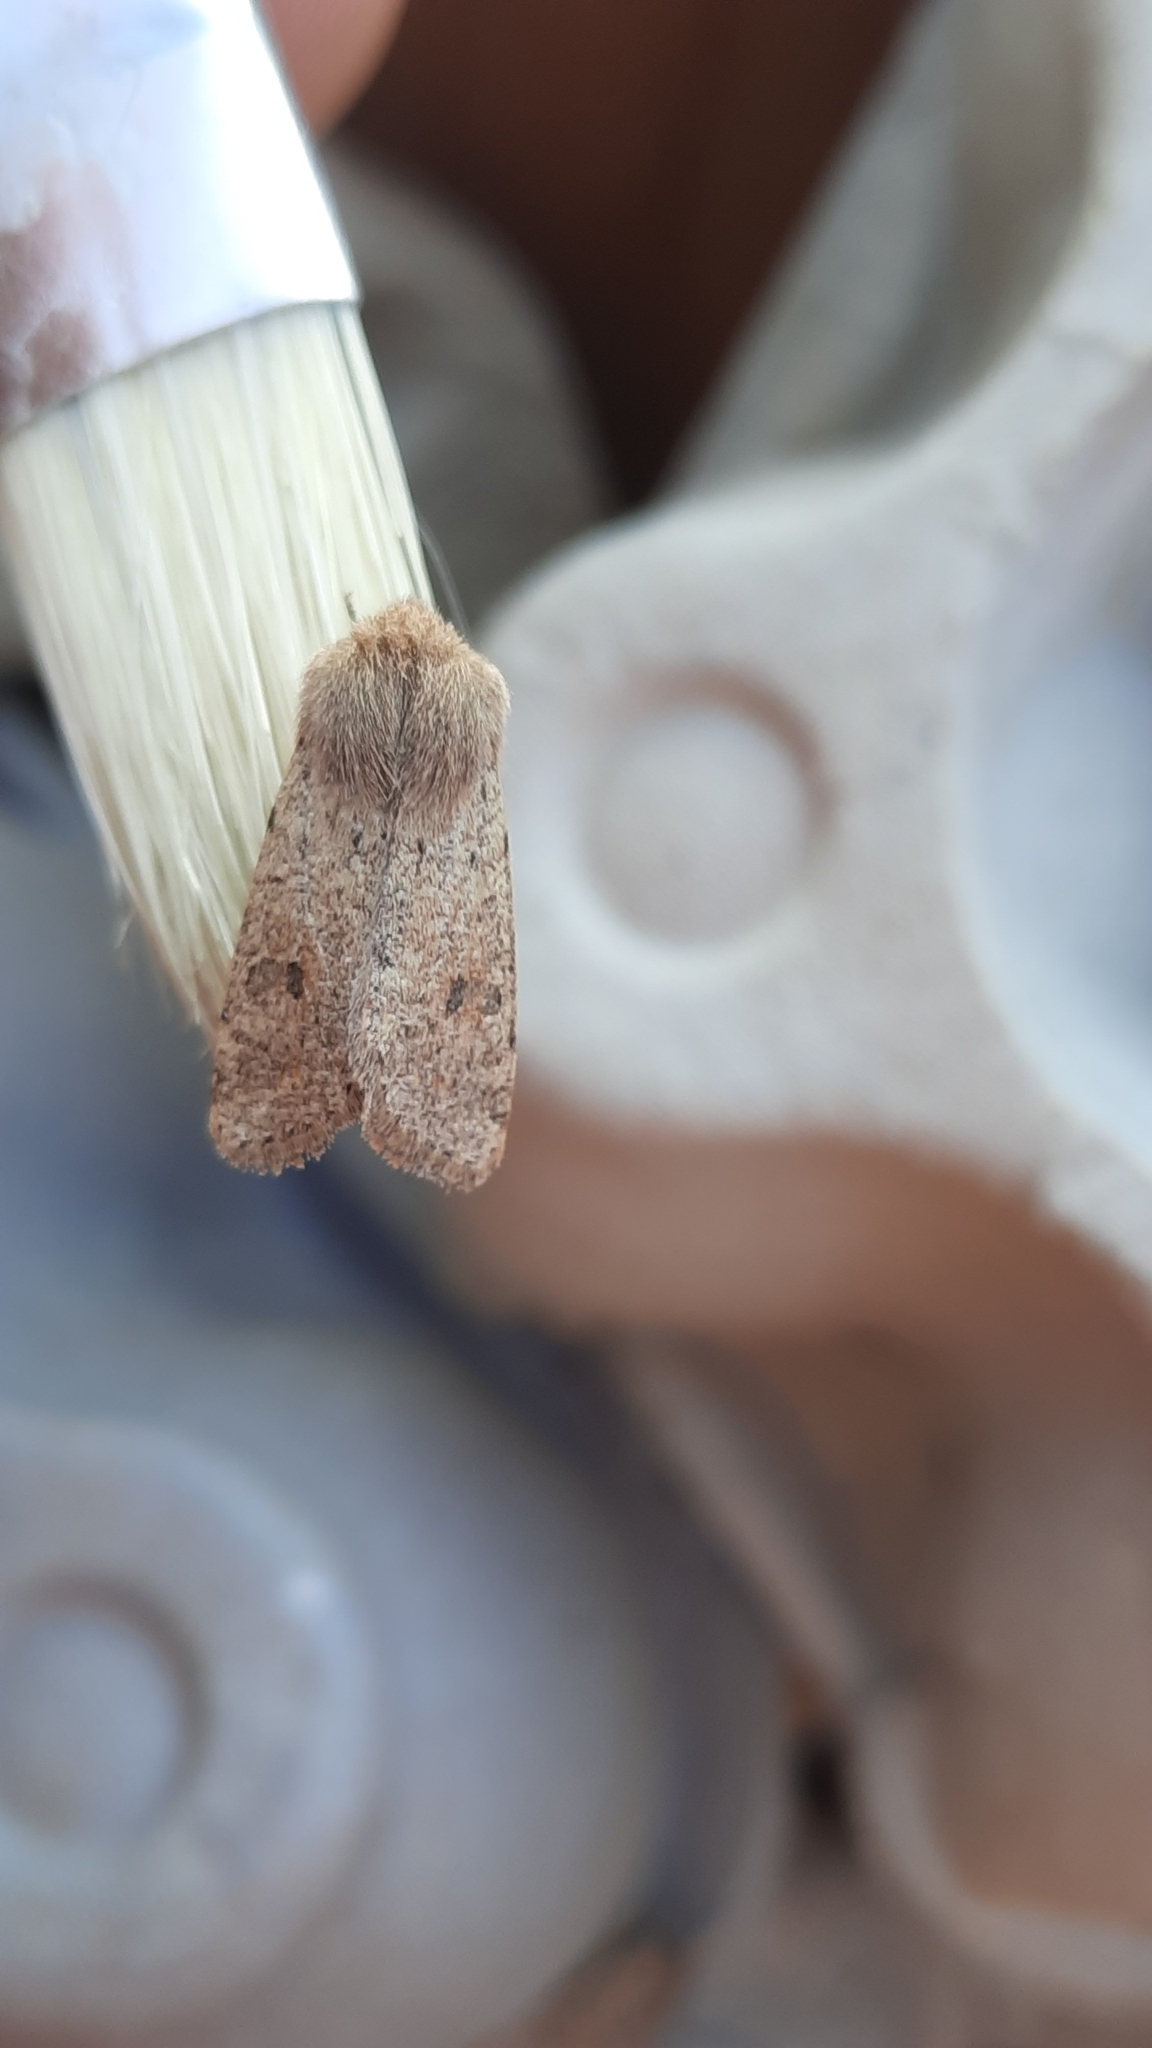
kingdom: Animalia
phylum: Arthropoda
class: Insecta
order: Lepidoptera
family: Noctuidae
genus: Orthosia
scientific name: Orthosia cruda
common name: Small quaker
